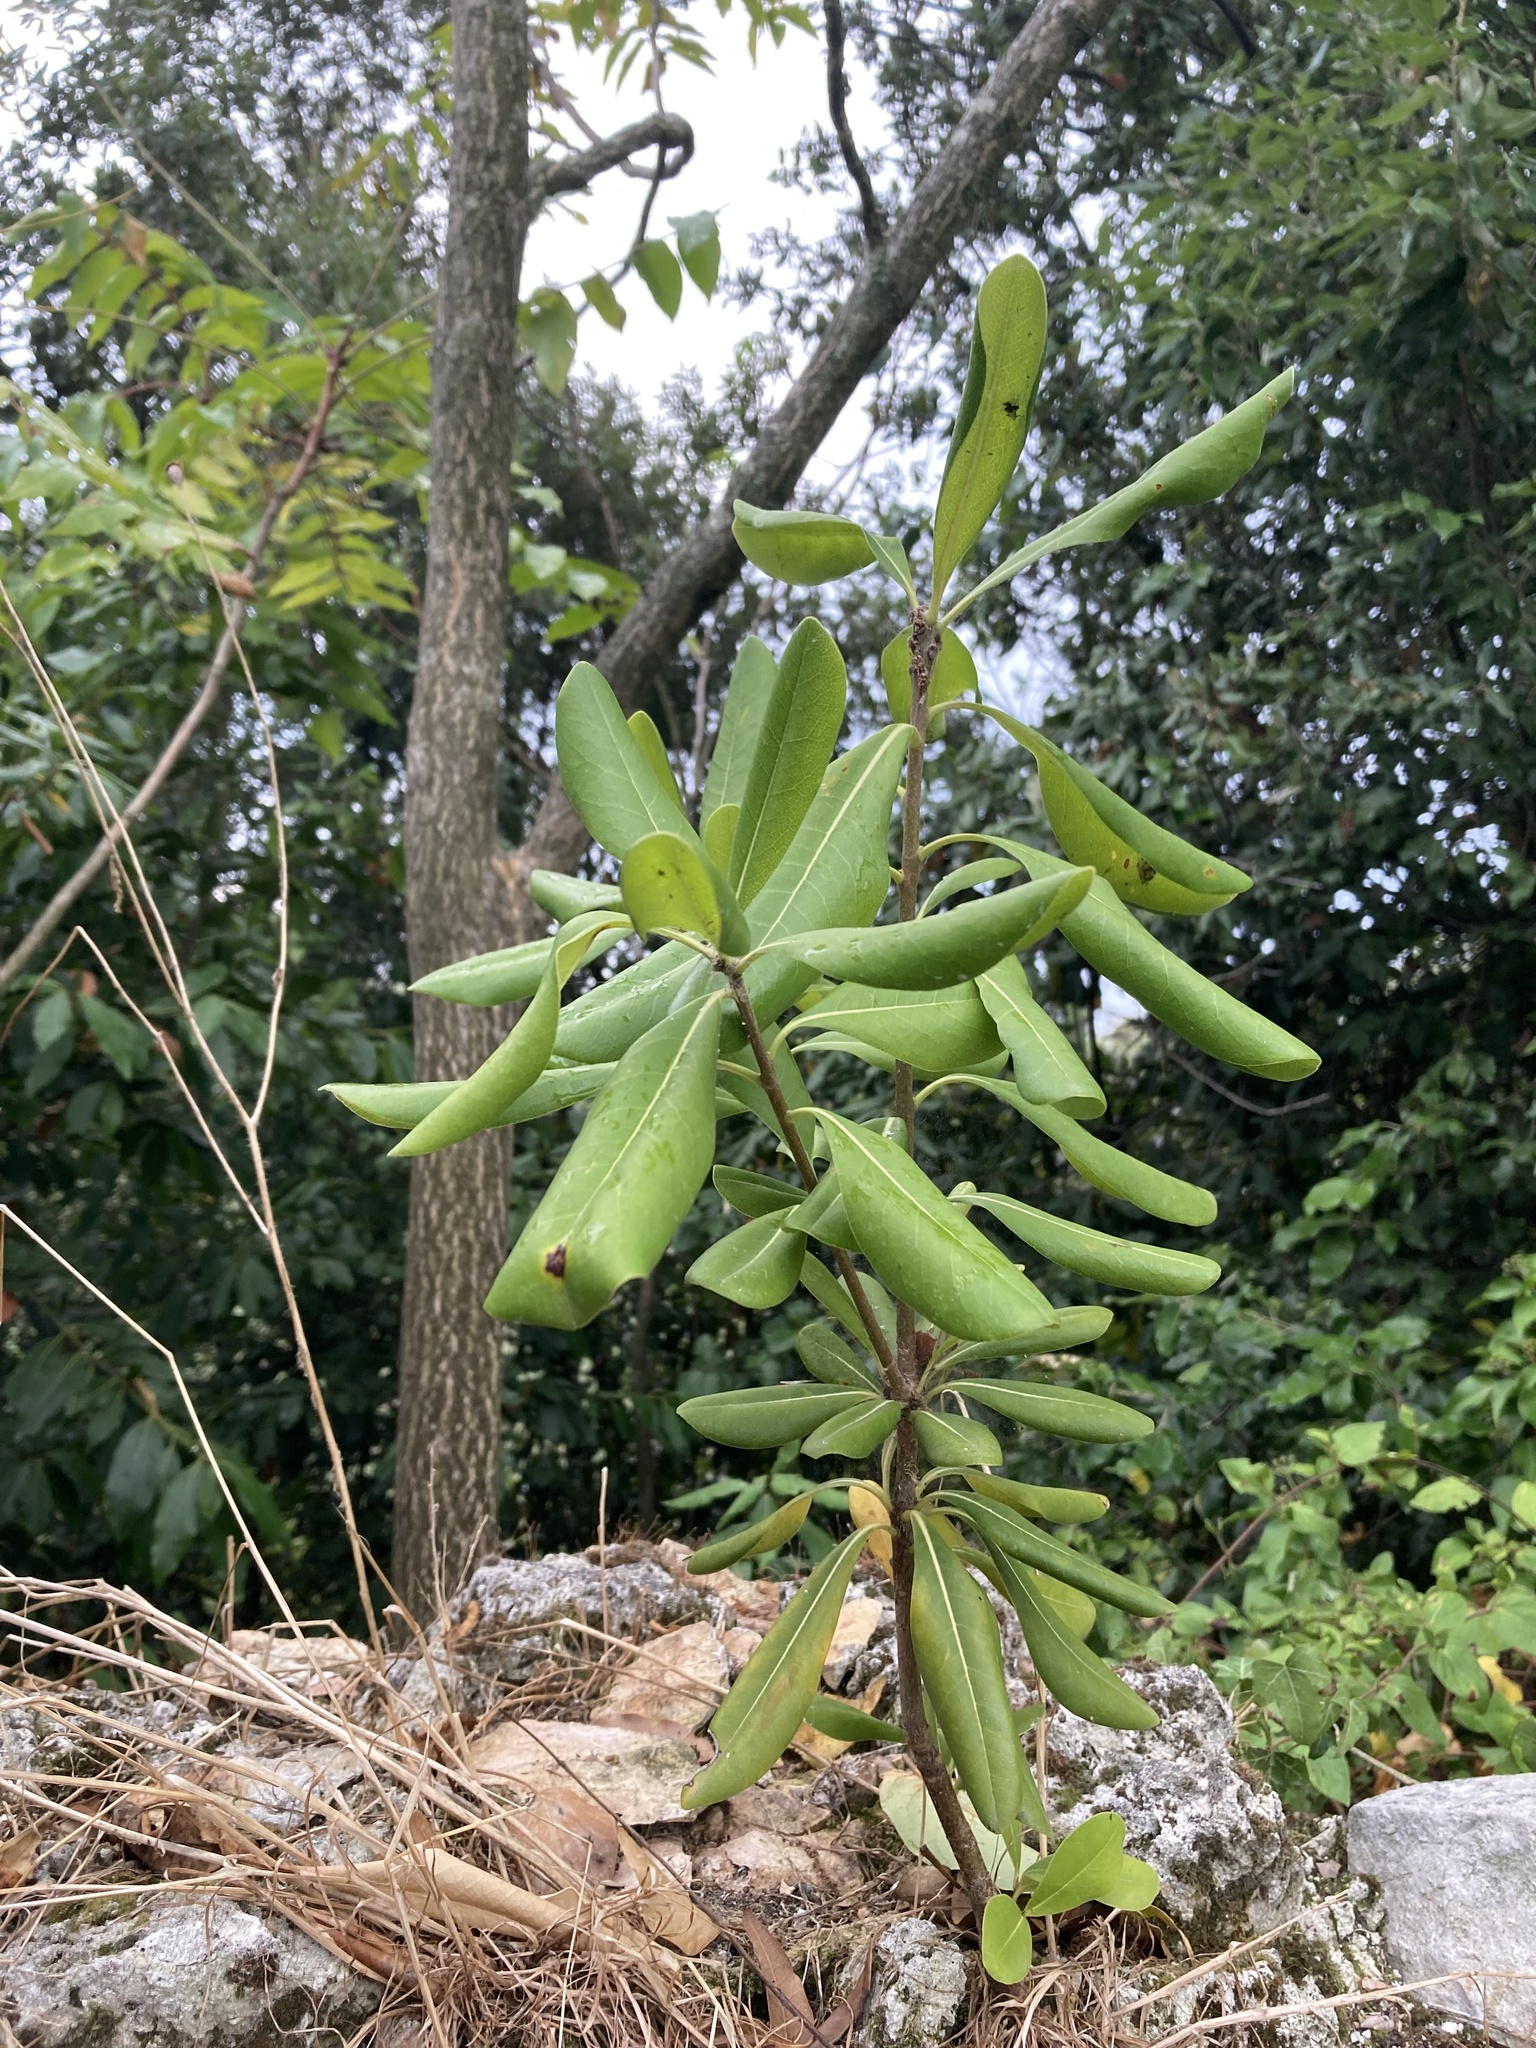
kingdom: Plantae
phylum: Tracheophyta
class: Magnoliopsida
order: Apiales
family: Pittosporaceae
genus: Pittosporum
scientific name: Pittosporum tobira
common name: Japanese cheesewood
